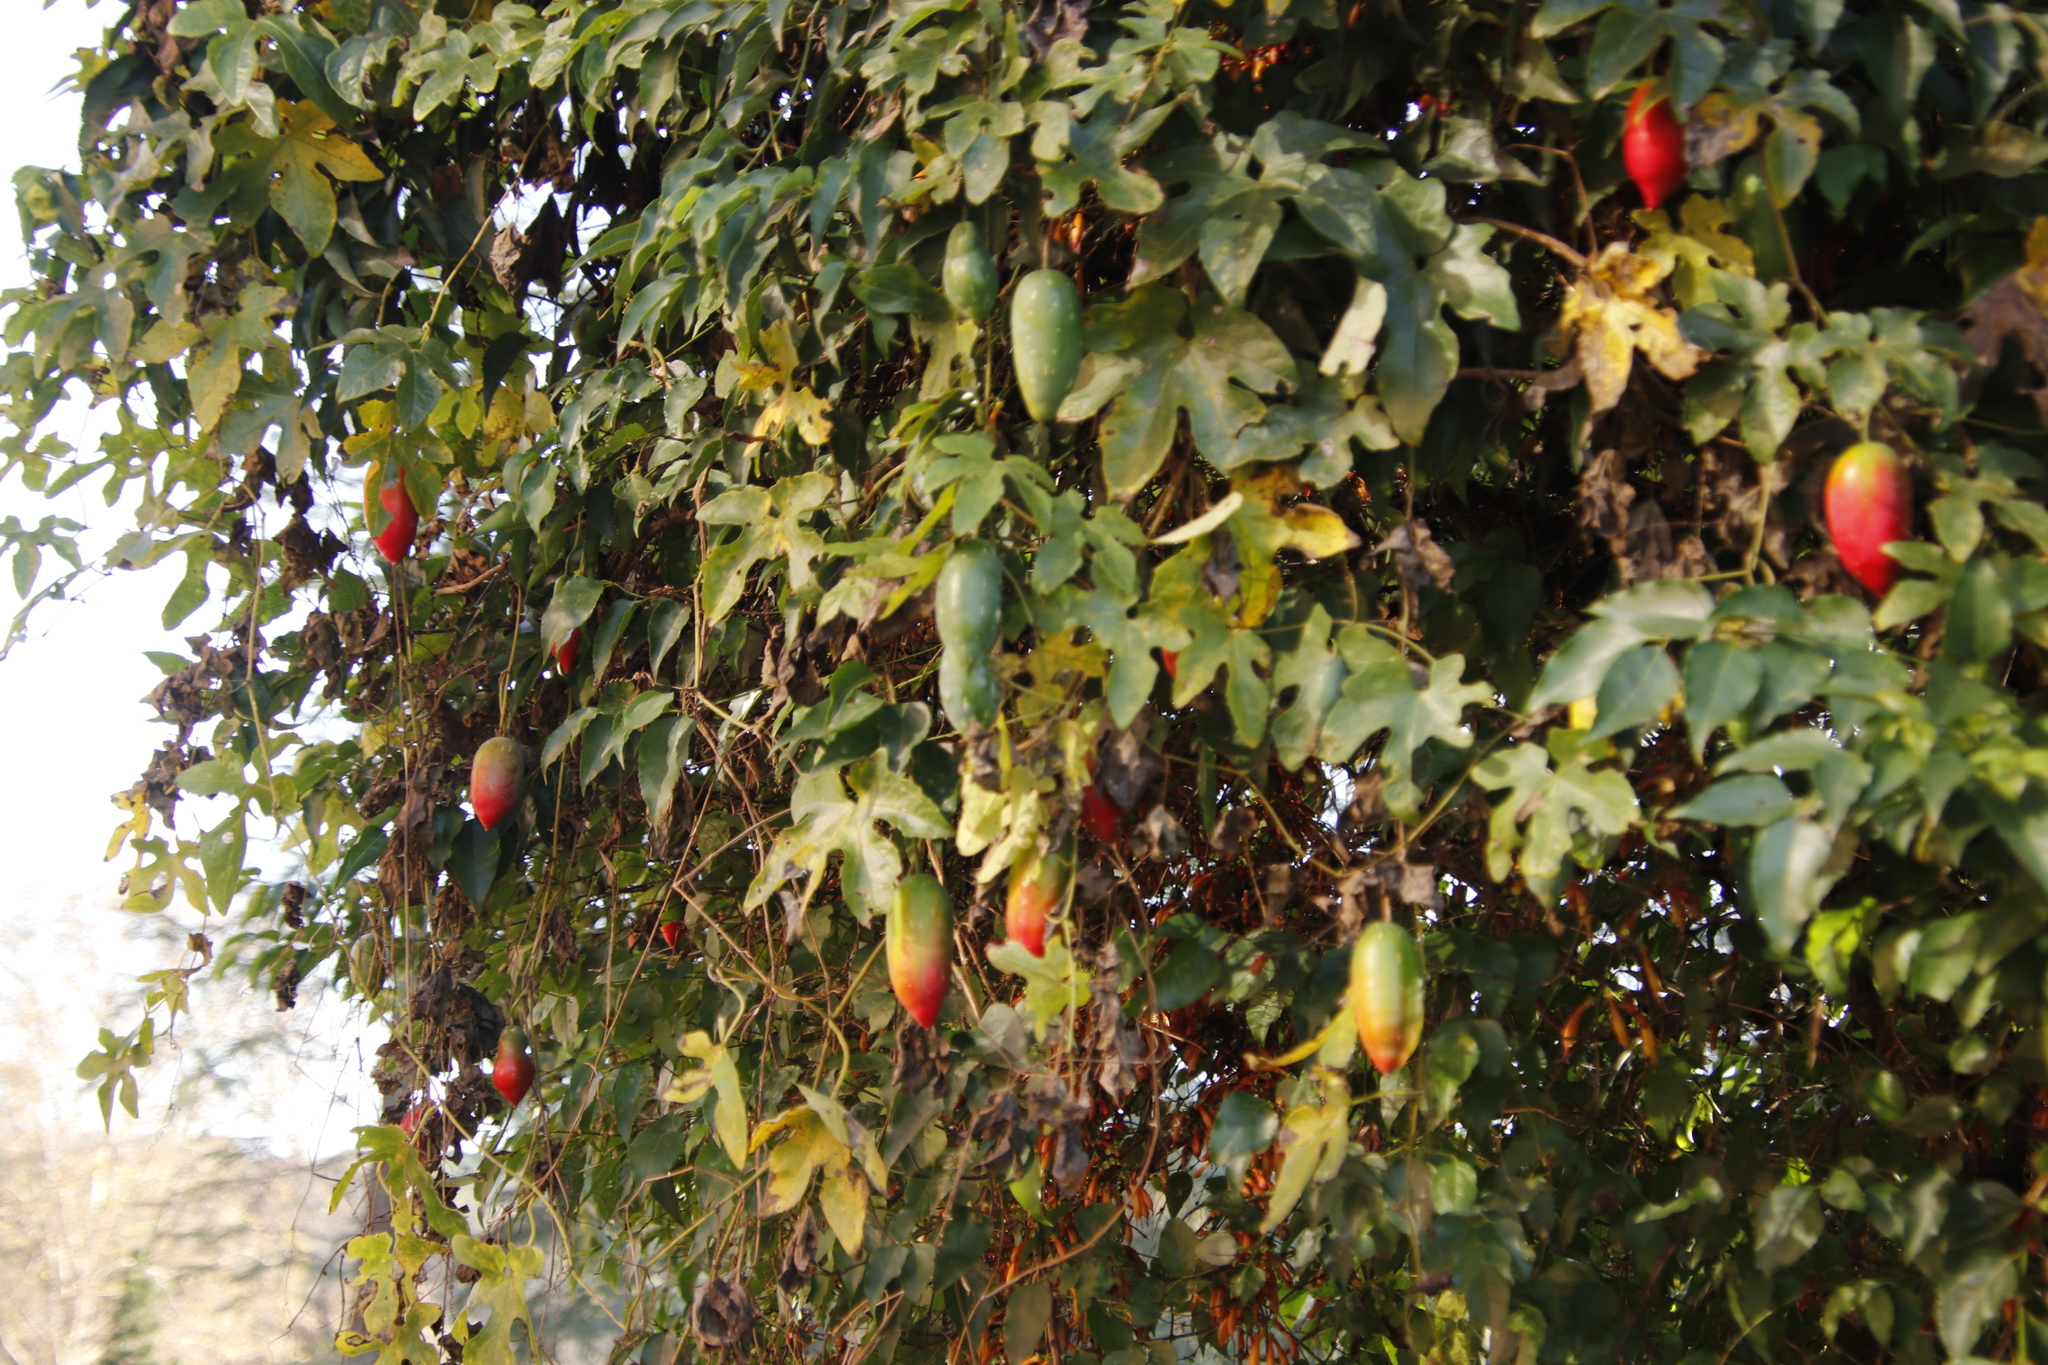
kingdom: Plantae
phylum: Tracheophyta
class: Magnoliopsida
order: Cucurbitales
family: Cucurbitaceae
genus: Coccinia
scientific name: Coccinia palmata
